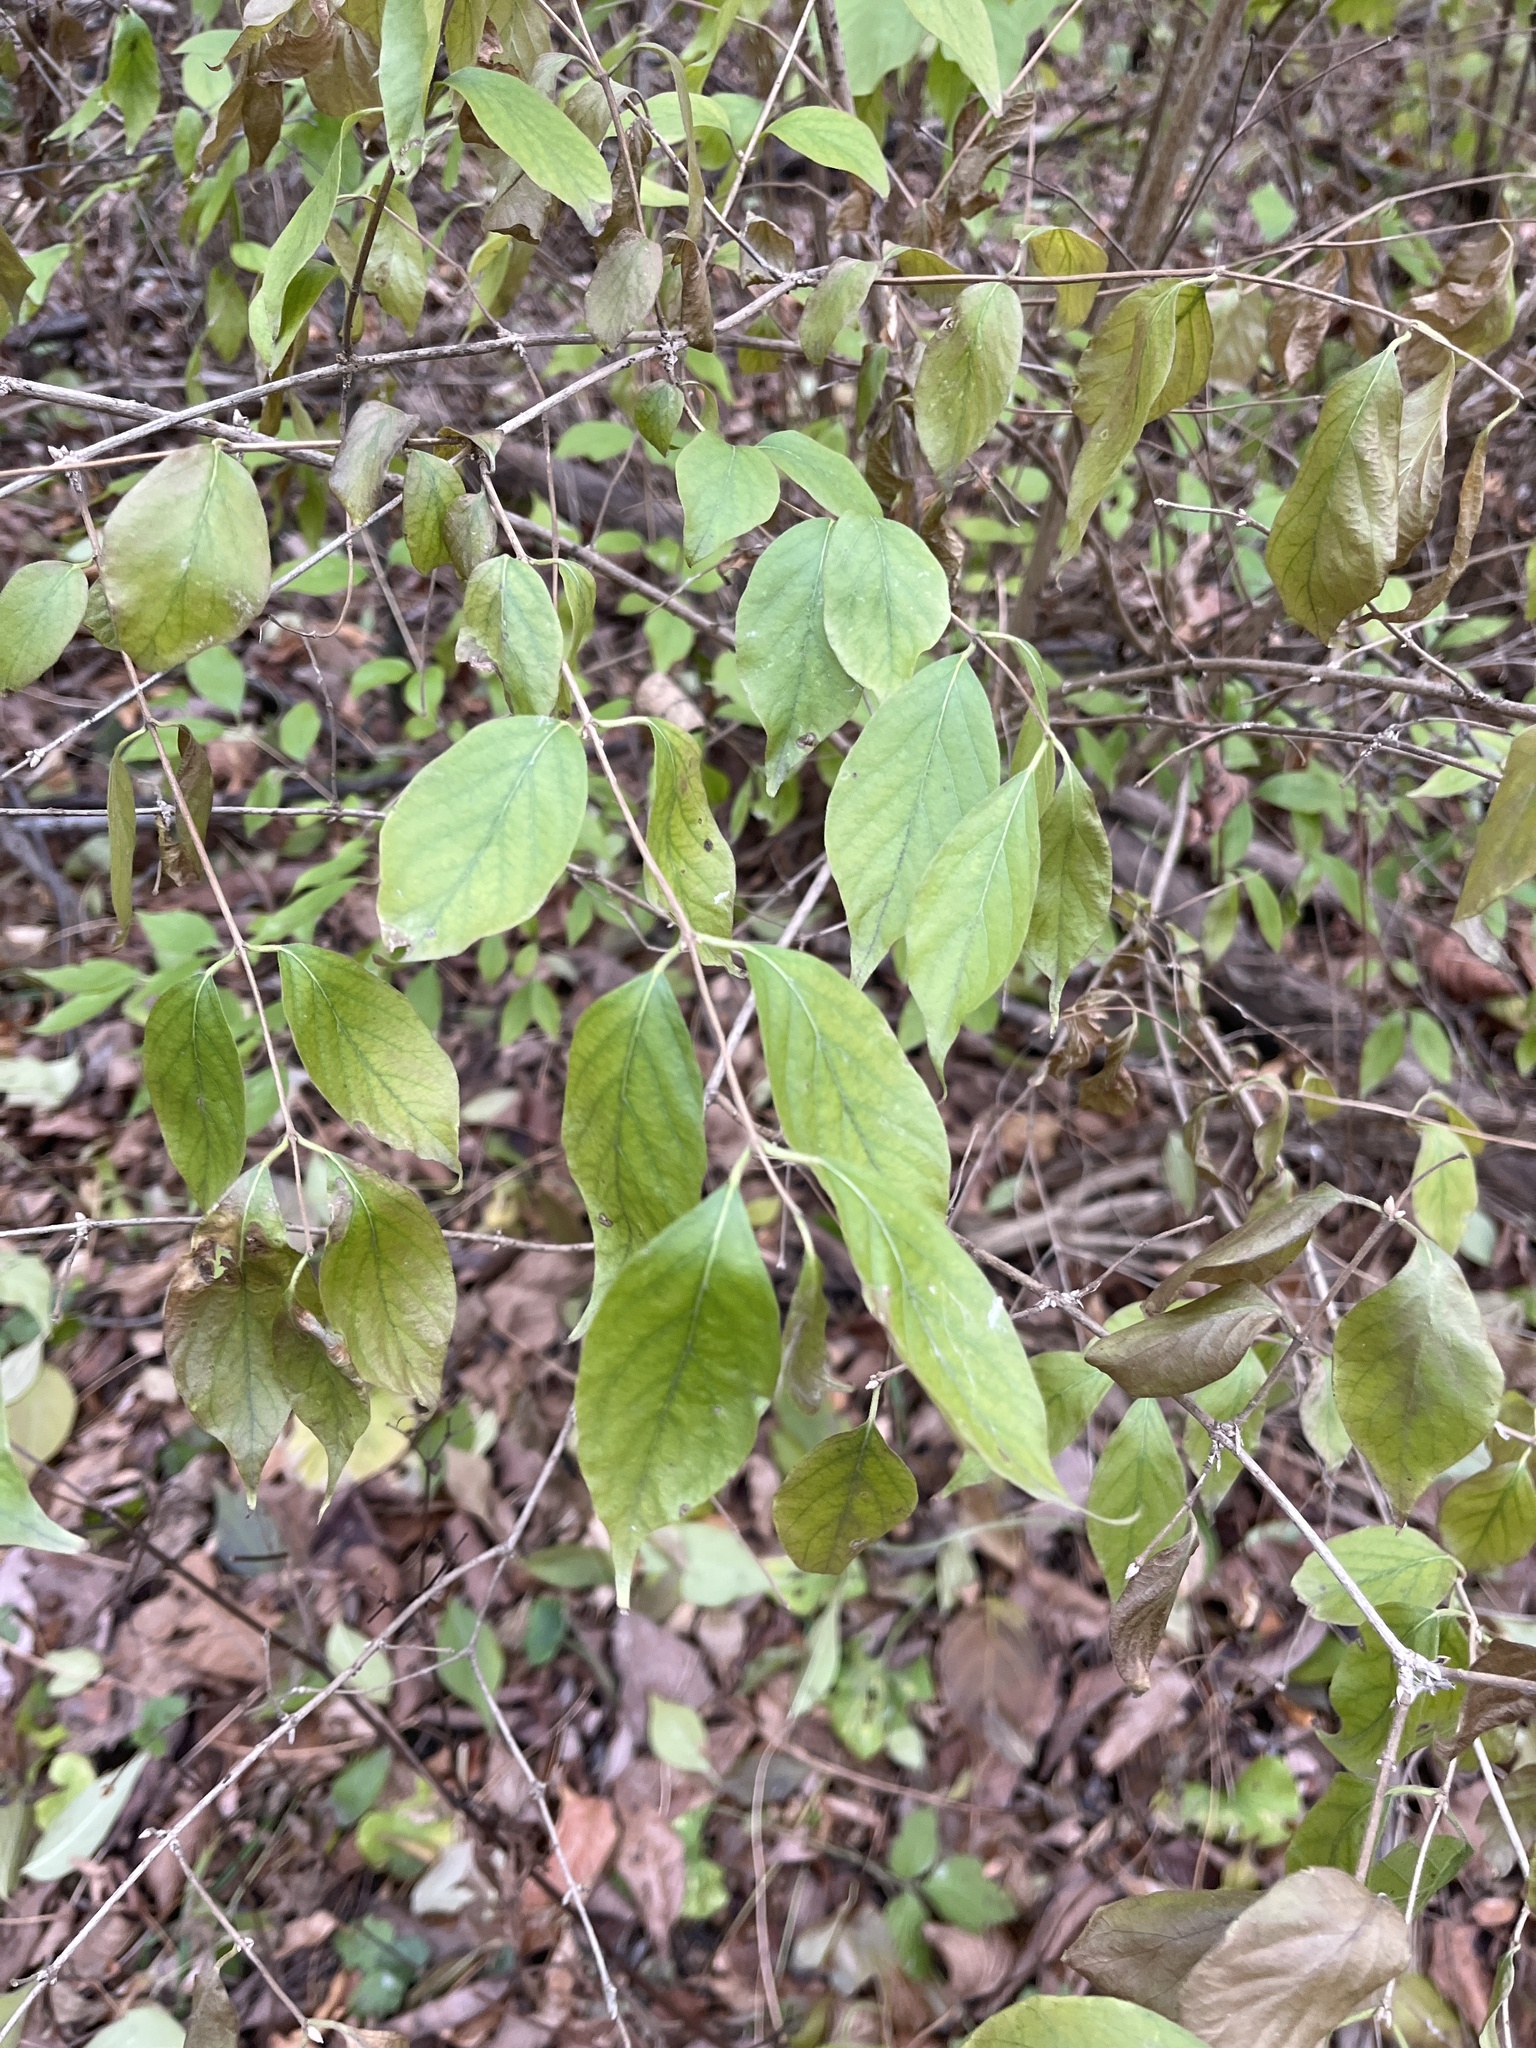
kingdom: Plantae
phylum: Tracheophyta
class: Magnoliopsida
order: Dipsacales
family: Caprifoliaceae
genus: Lonicera
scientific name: Lonicera maackii
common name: Amur honeysuckle
